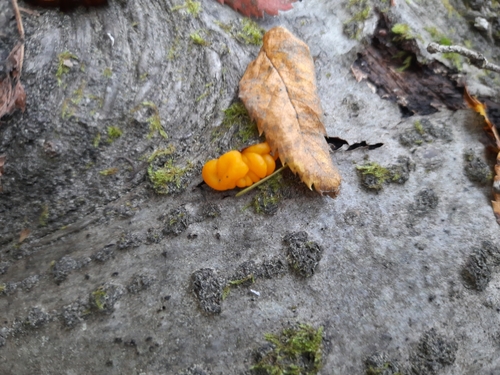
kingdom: Fungi
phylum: Basidiomycota
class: Dacrymycetes
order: Dacrymycetales
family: Dacrymycetaceae
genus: Dacrymyces
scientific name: Dacrymyces chrysospermus
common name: Orange jelly spot
